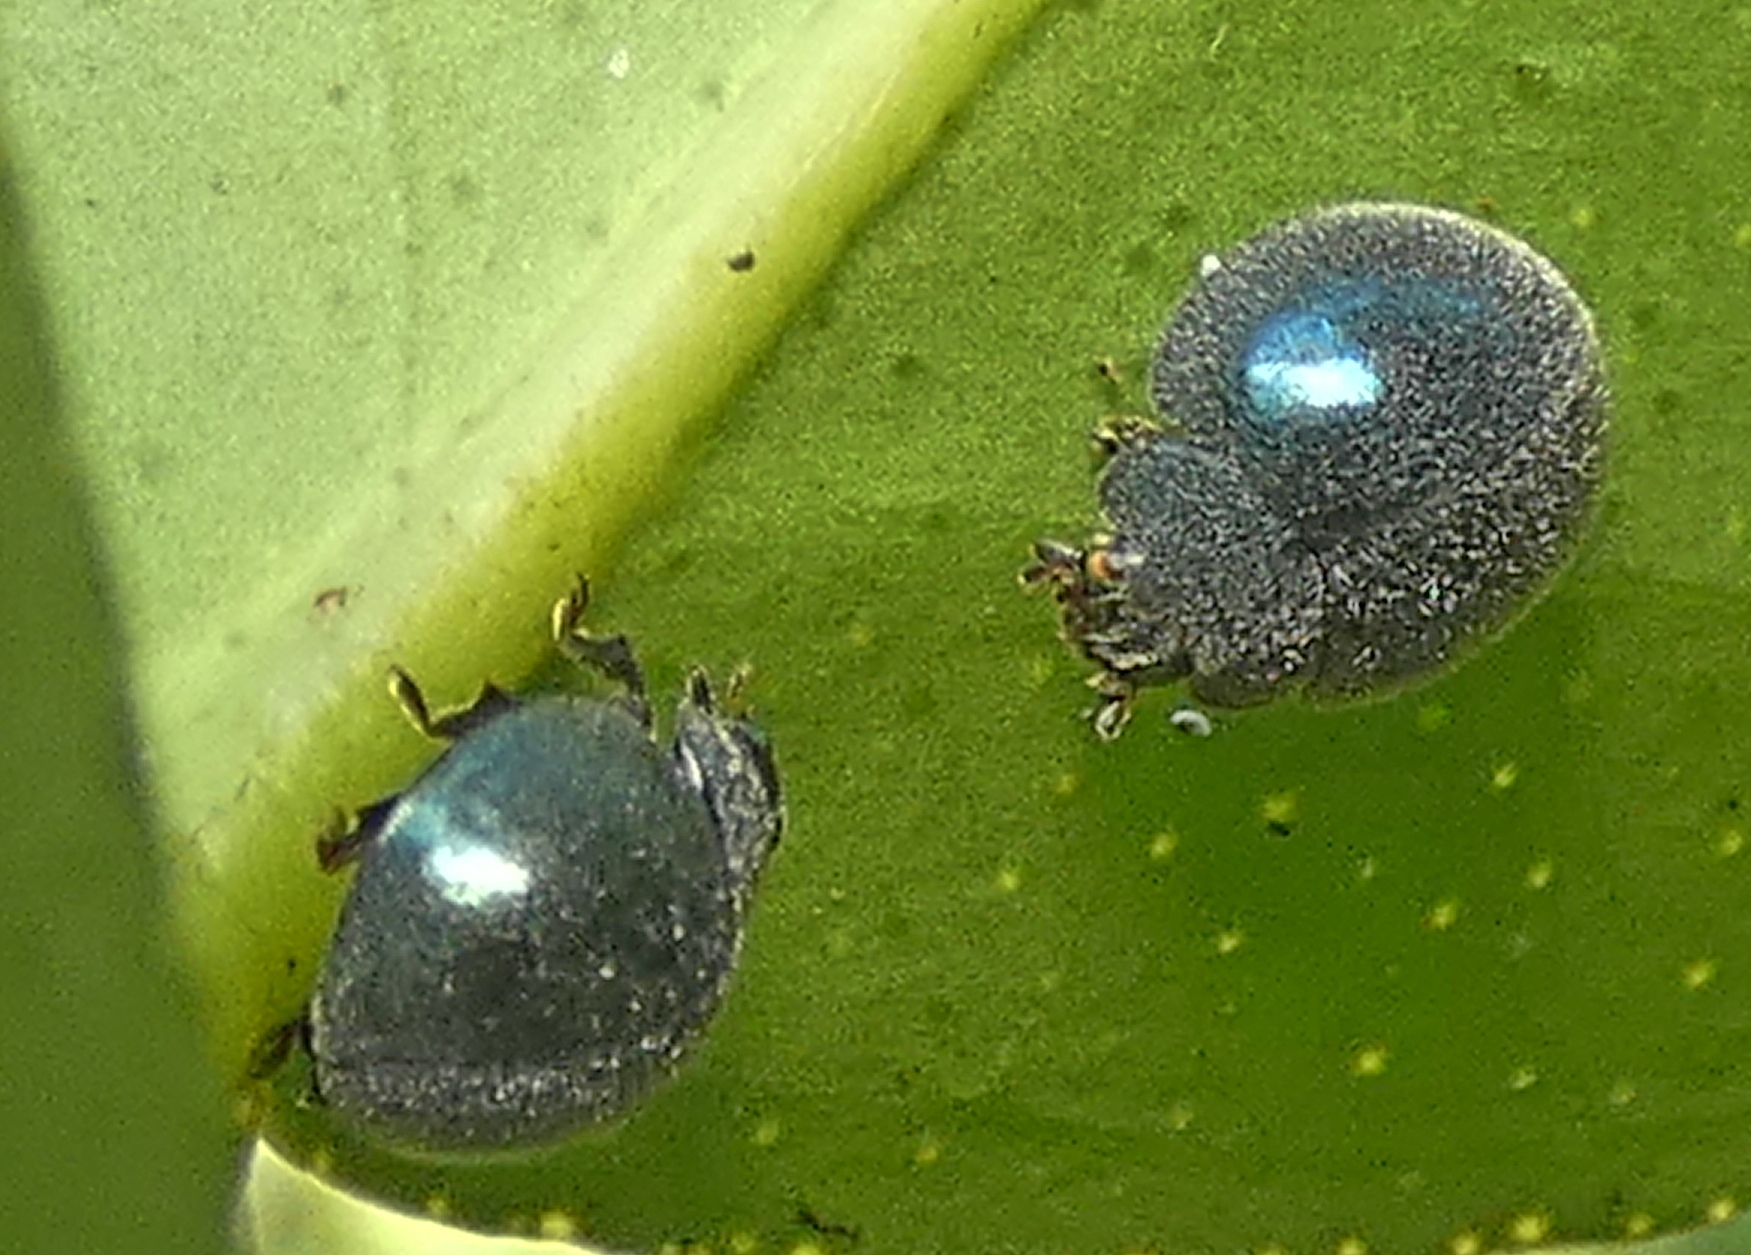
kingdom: Animalia
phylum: Arthropoda
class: Insecta
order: Coleoptera
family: Coccinellidae
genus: Exoplectra
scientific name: Exoplectra calcarata
